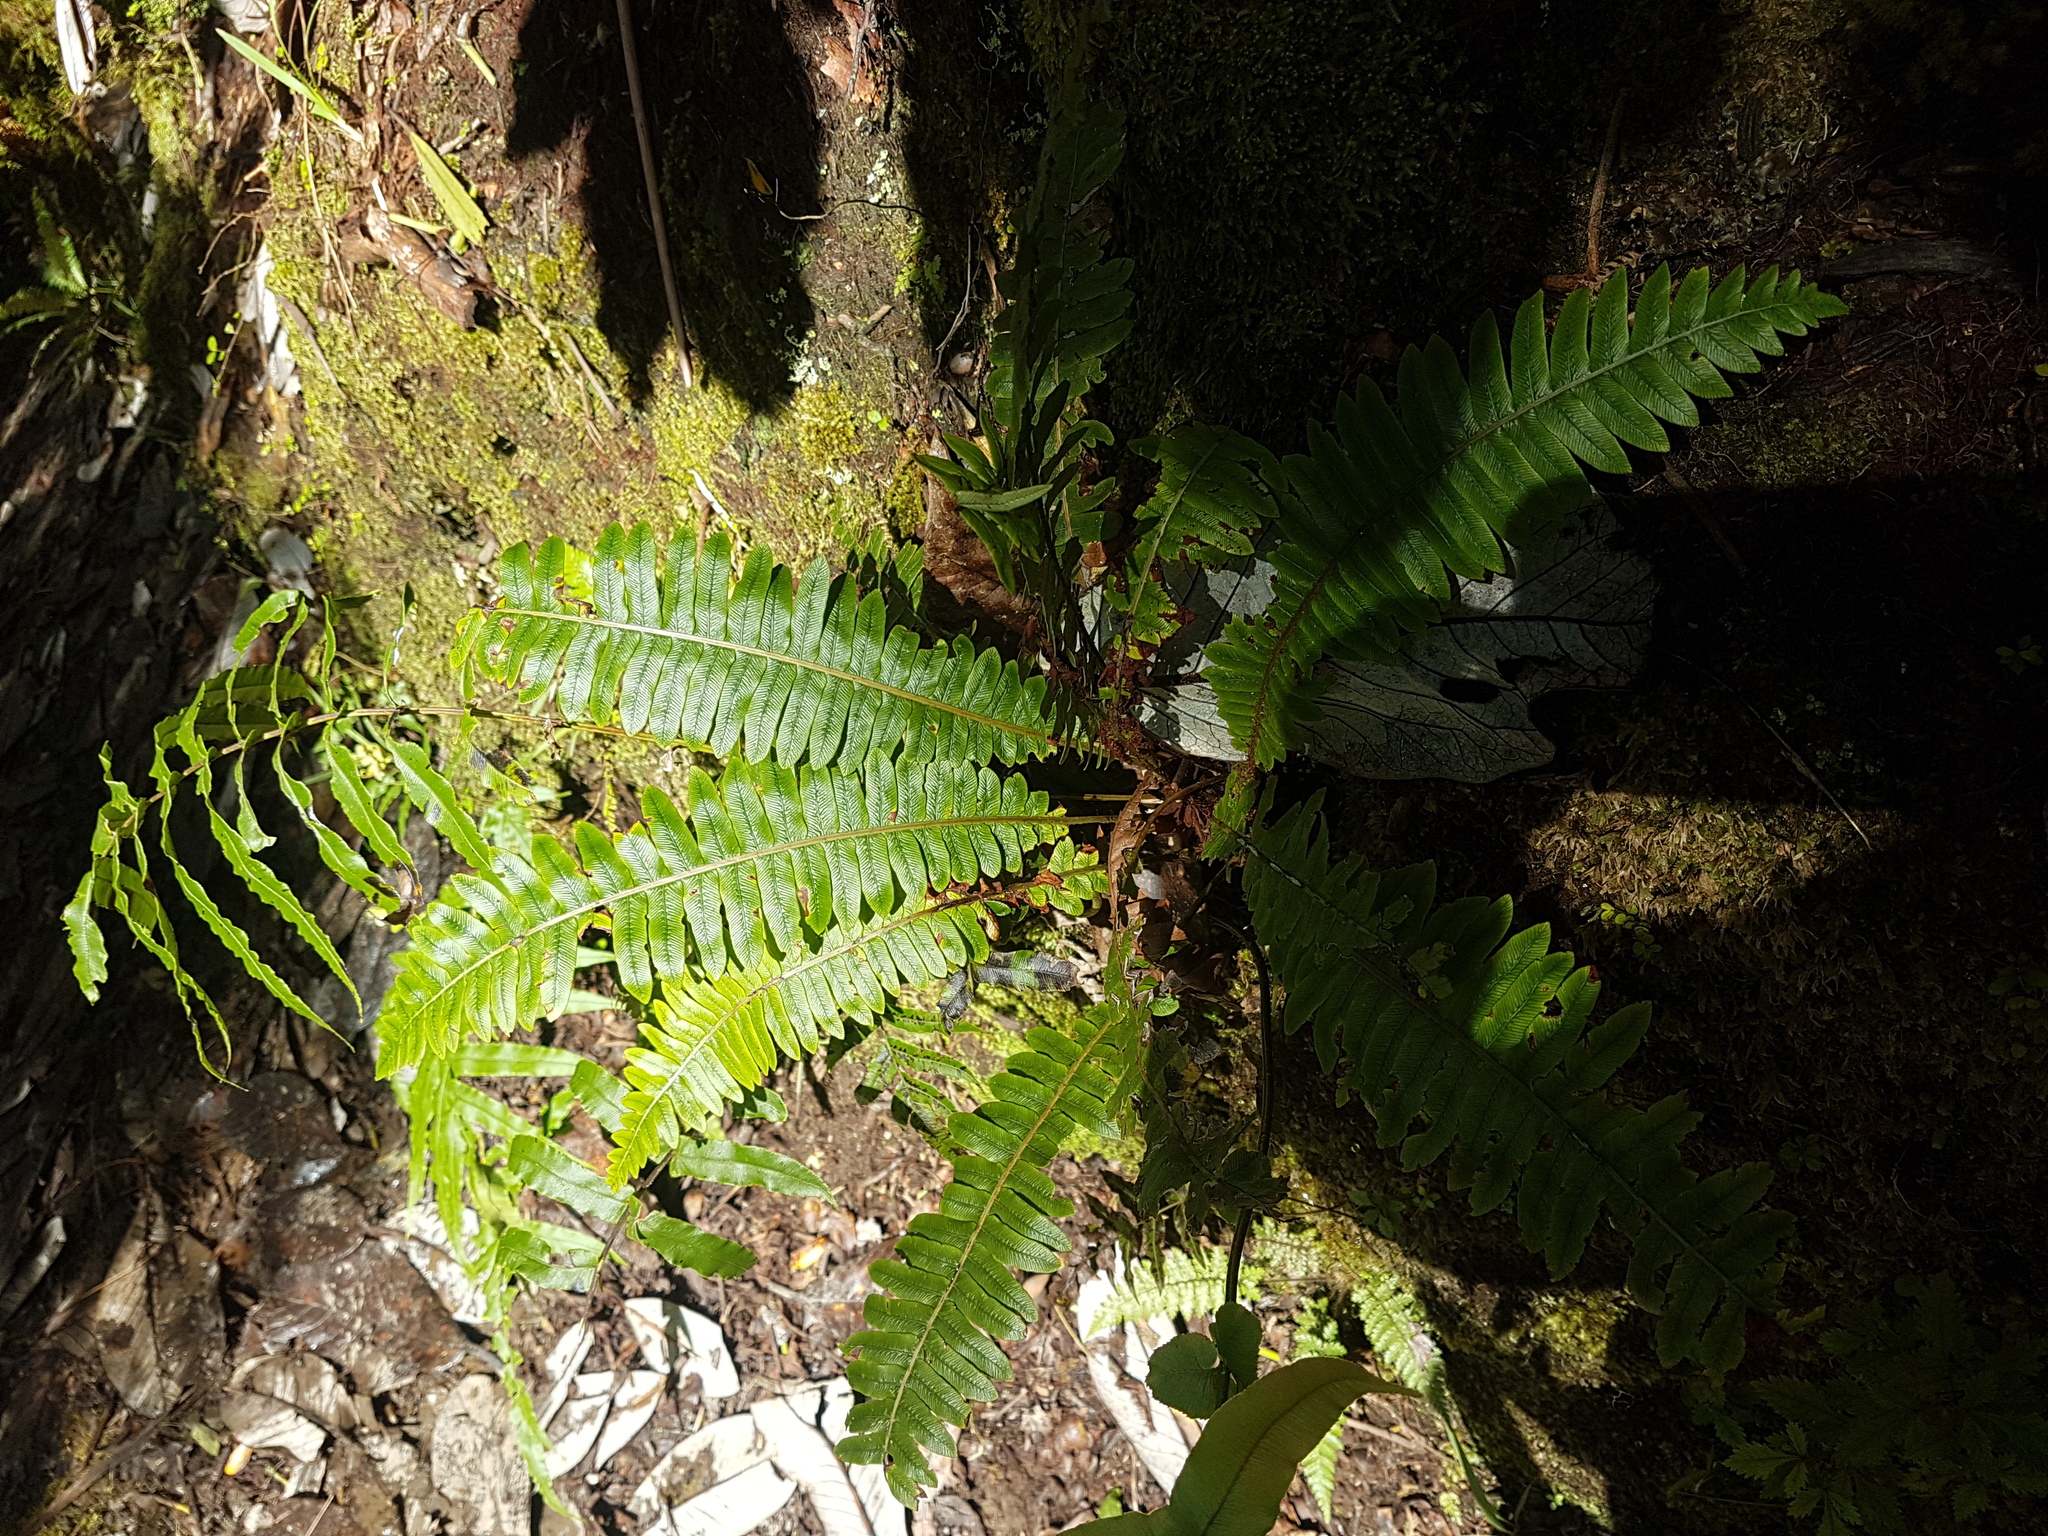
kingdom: Plantae
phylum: Tracheophyta
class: Polypodiopsida
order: Polypodiales
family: Blechnaceae
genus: Lomaria
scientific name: Lomaria discolor
